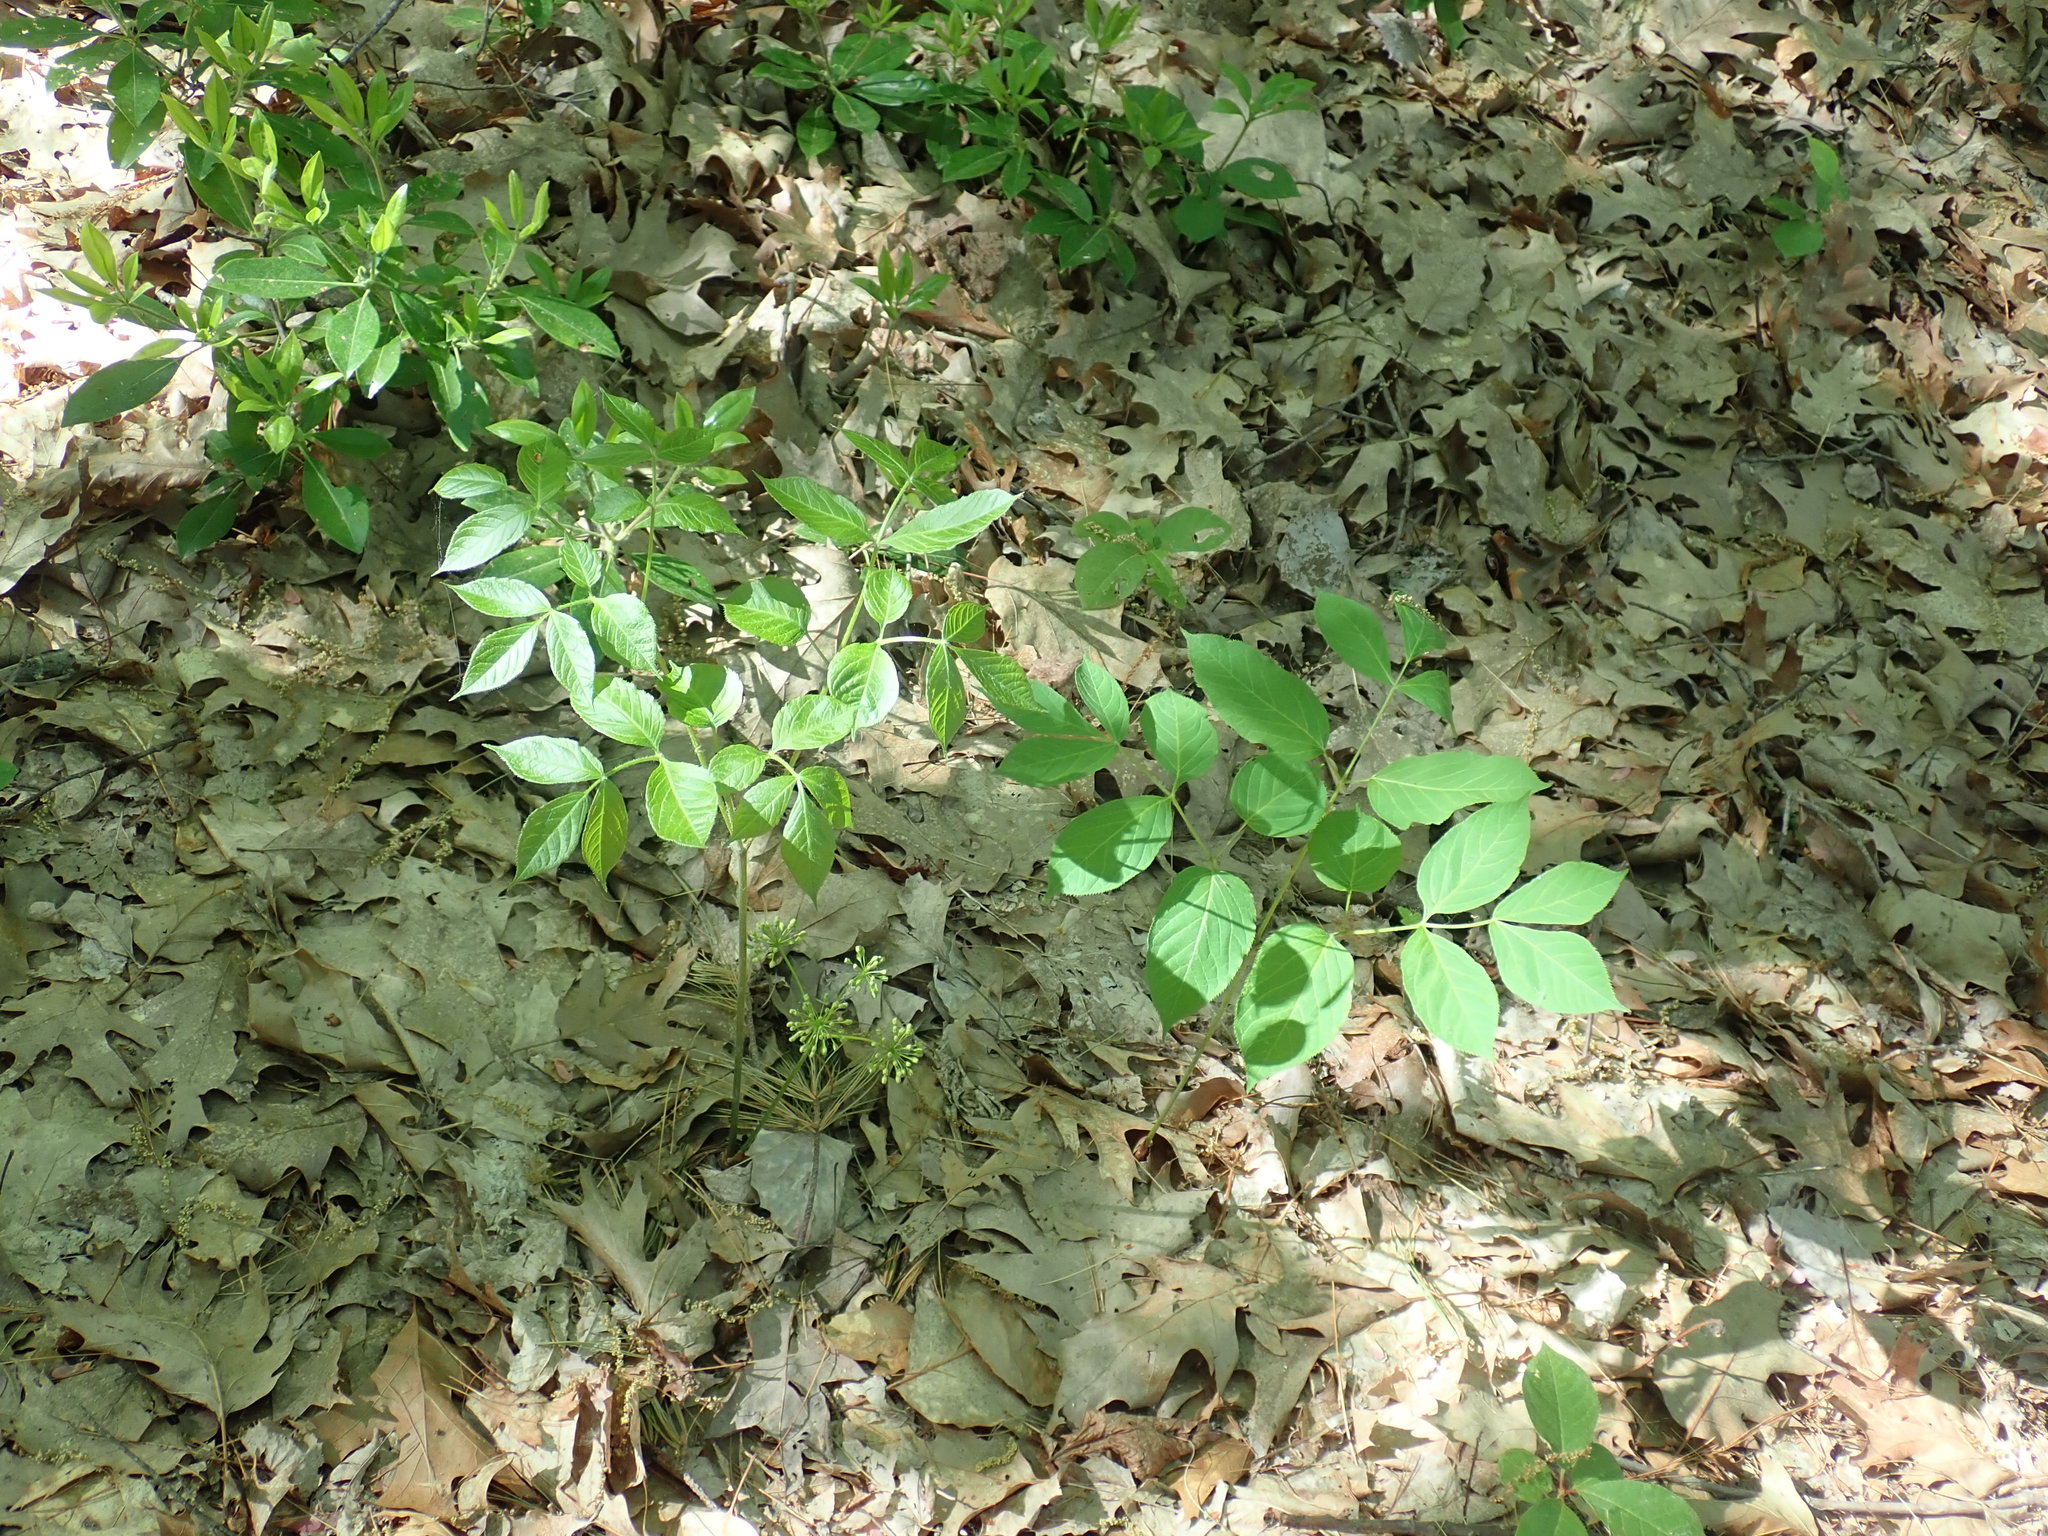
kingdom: Plantae
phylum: Tracheophyta
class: Magnoliopsida
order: Apiales
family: Araliaceae
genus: Aralia
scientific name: Aralia nudicaulis
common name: Wild sarsaparilla
